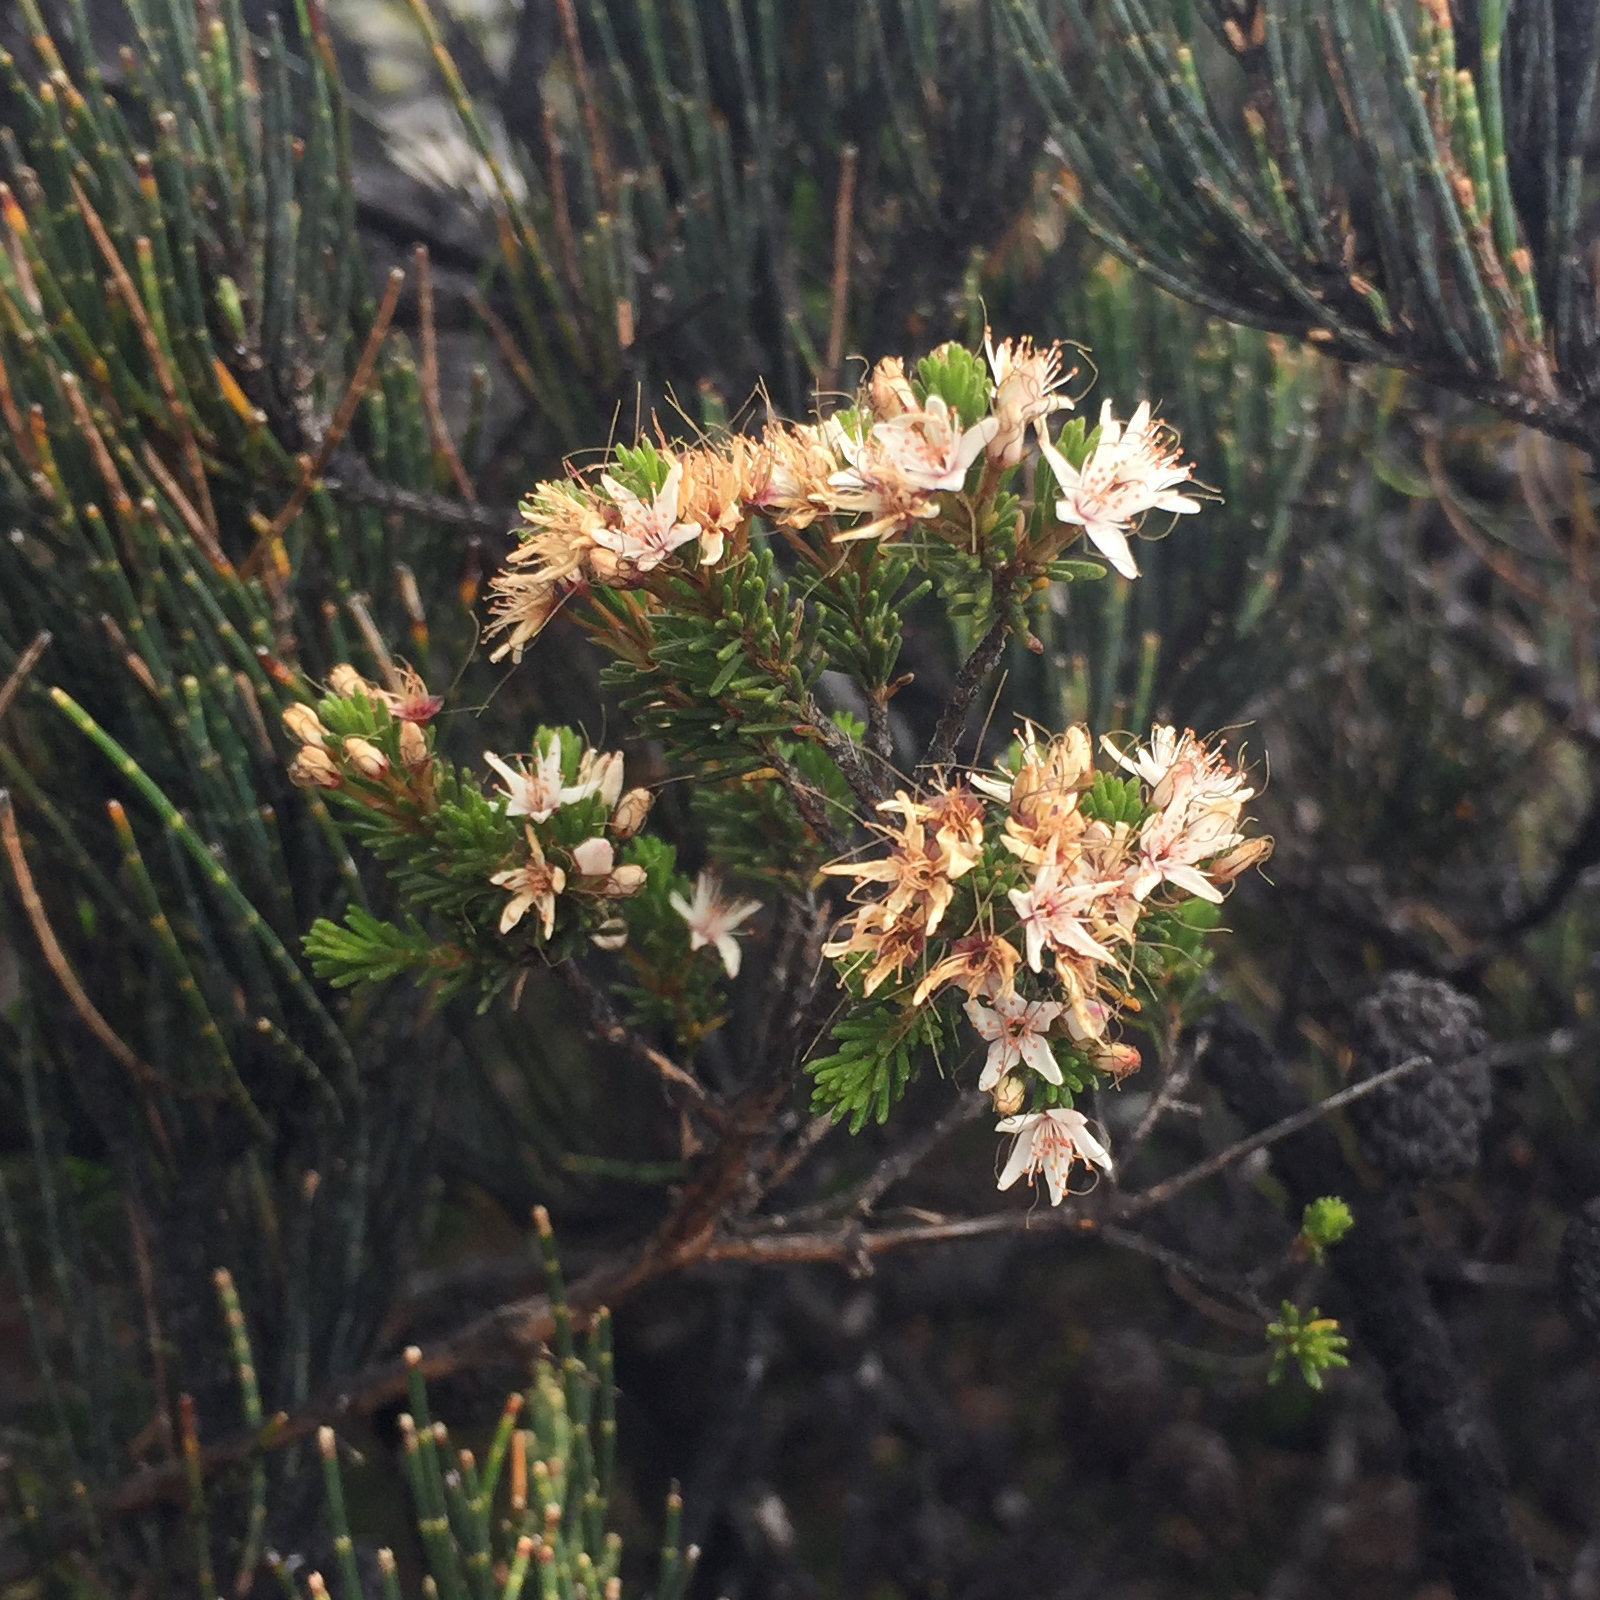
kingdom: Plantae
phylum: Tracheophyta
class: Magnoliopsida
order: Myrtales
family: Myrtaceae
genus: Calytrix
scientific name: Calytrix tetragona
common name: Common fringe myrtle
